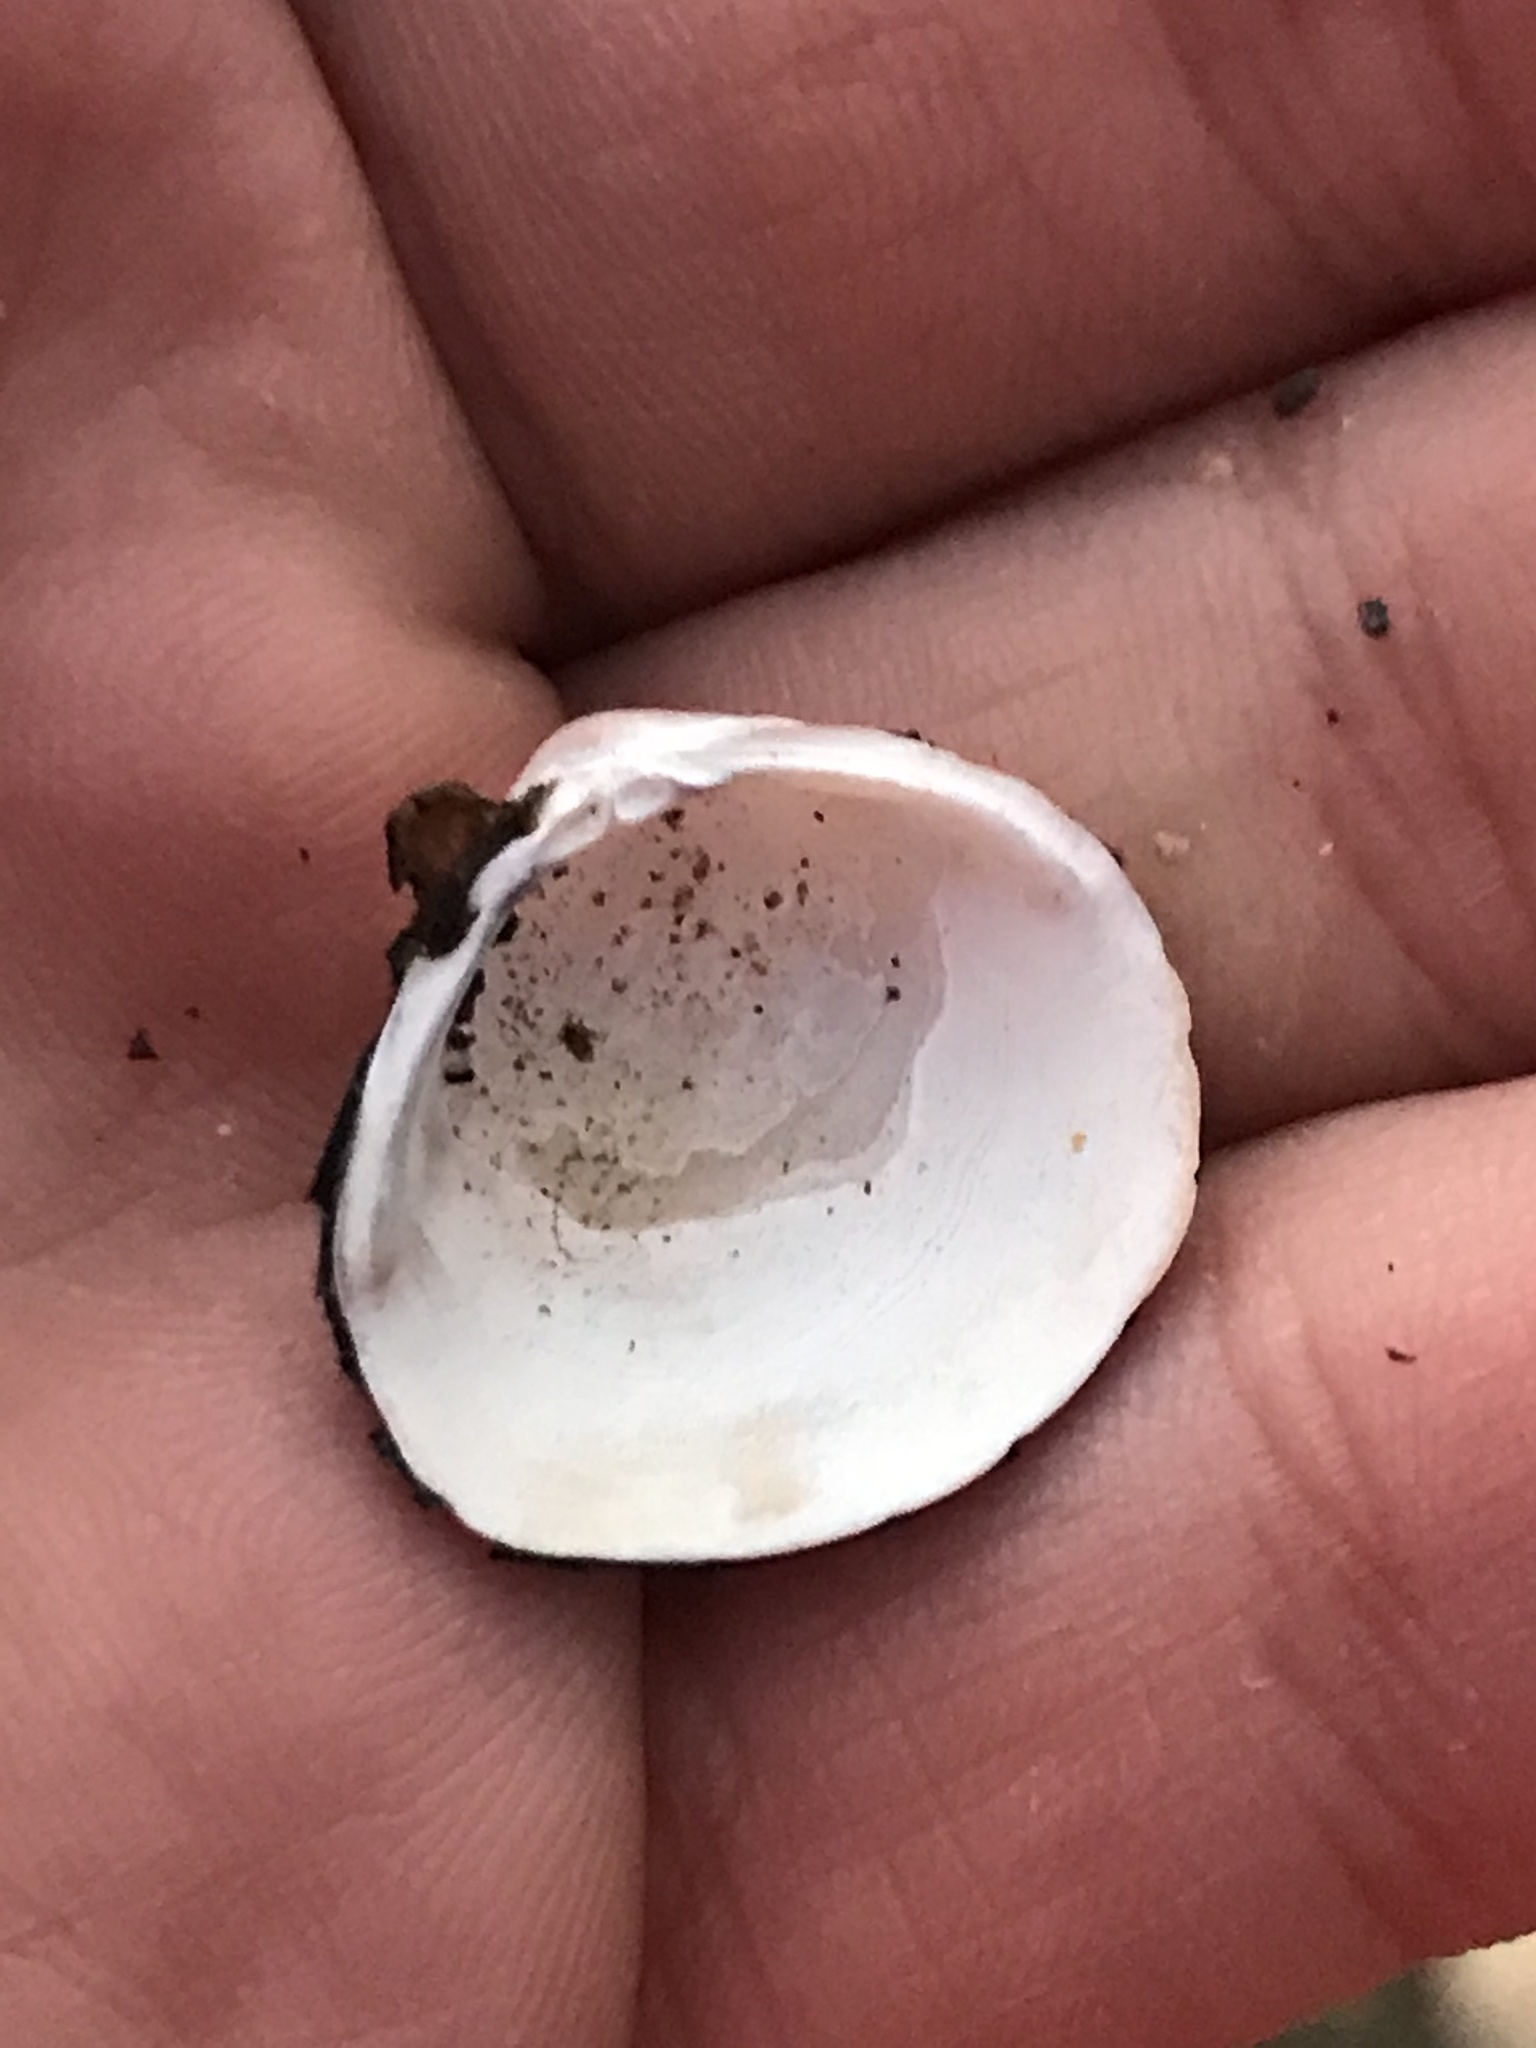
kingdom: Animalia
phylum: Mollusca
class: Bivalvia
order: Venerida
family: Cyrenidae
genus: Corbicula
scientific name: Corbicula fluminea
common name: Asian clam
